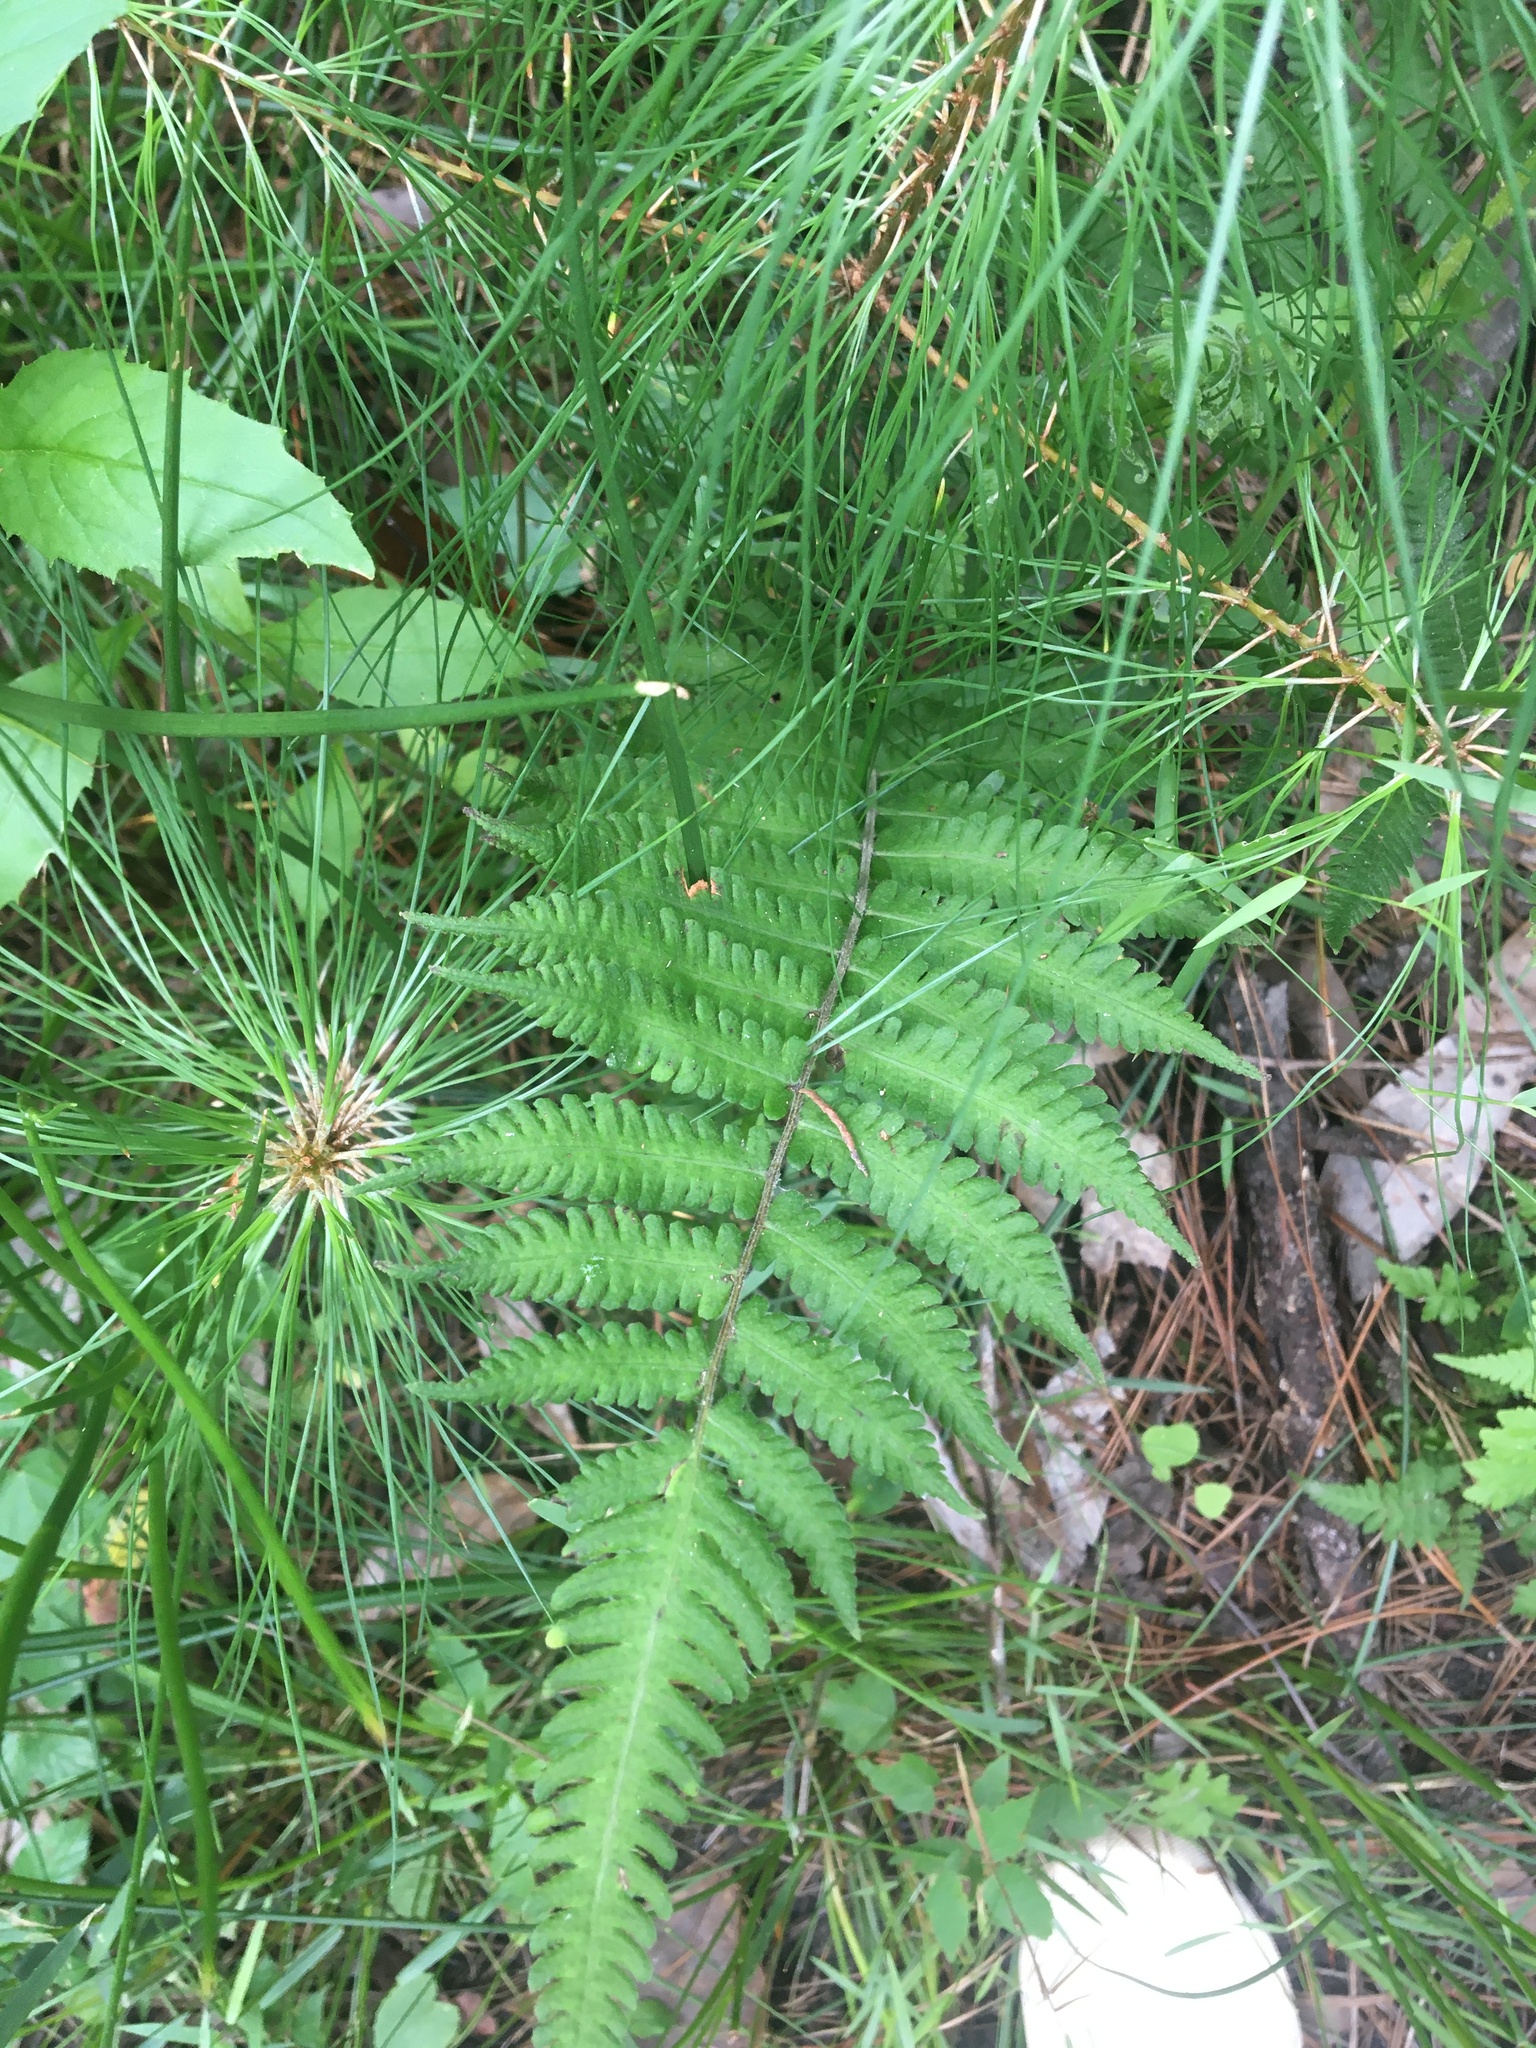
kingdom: Plantae
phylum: Tracheophyta
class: Polypodiopsida
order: Polypodiales
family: Athyriaceae
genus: Deparia
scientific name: Deparia petersenii
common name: Japanese false spleenwort
